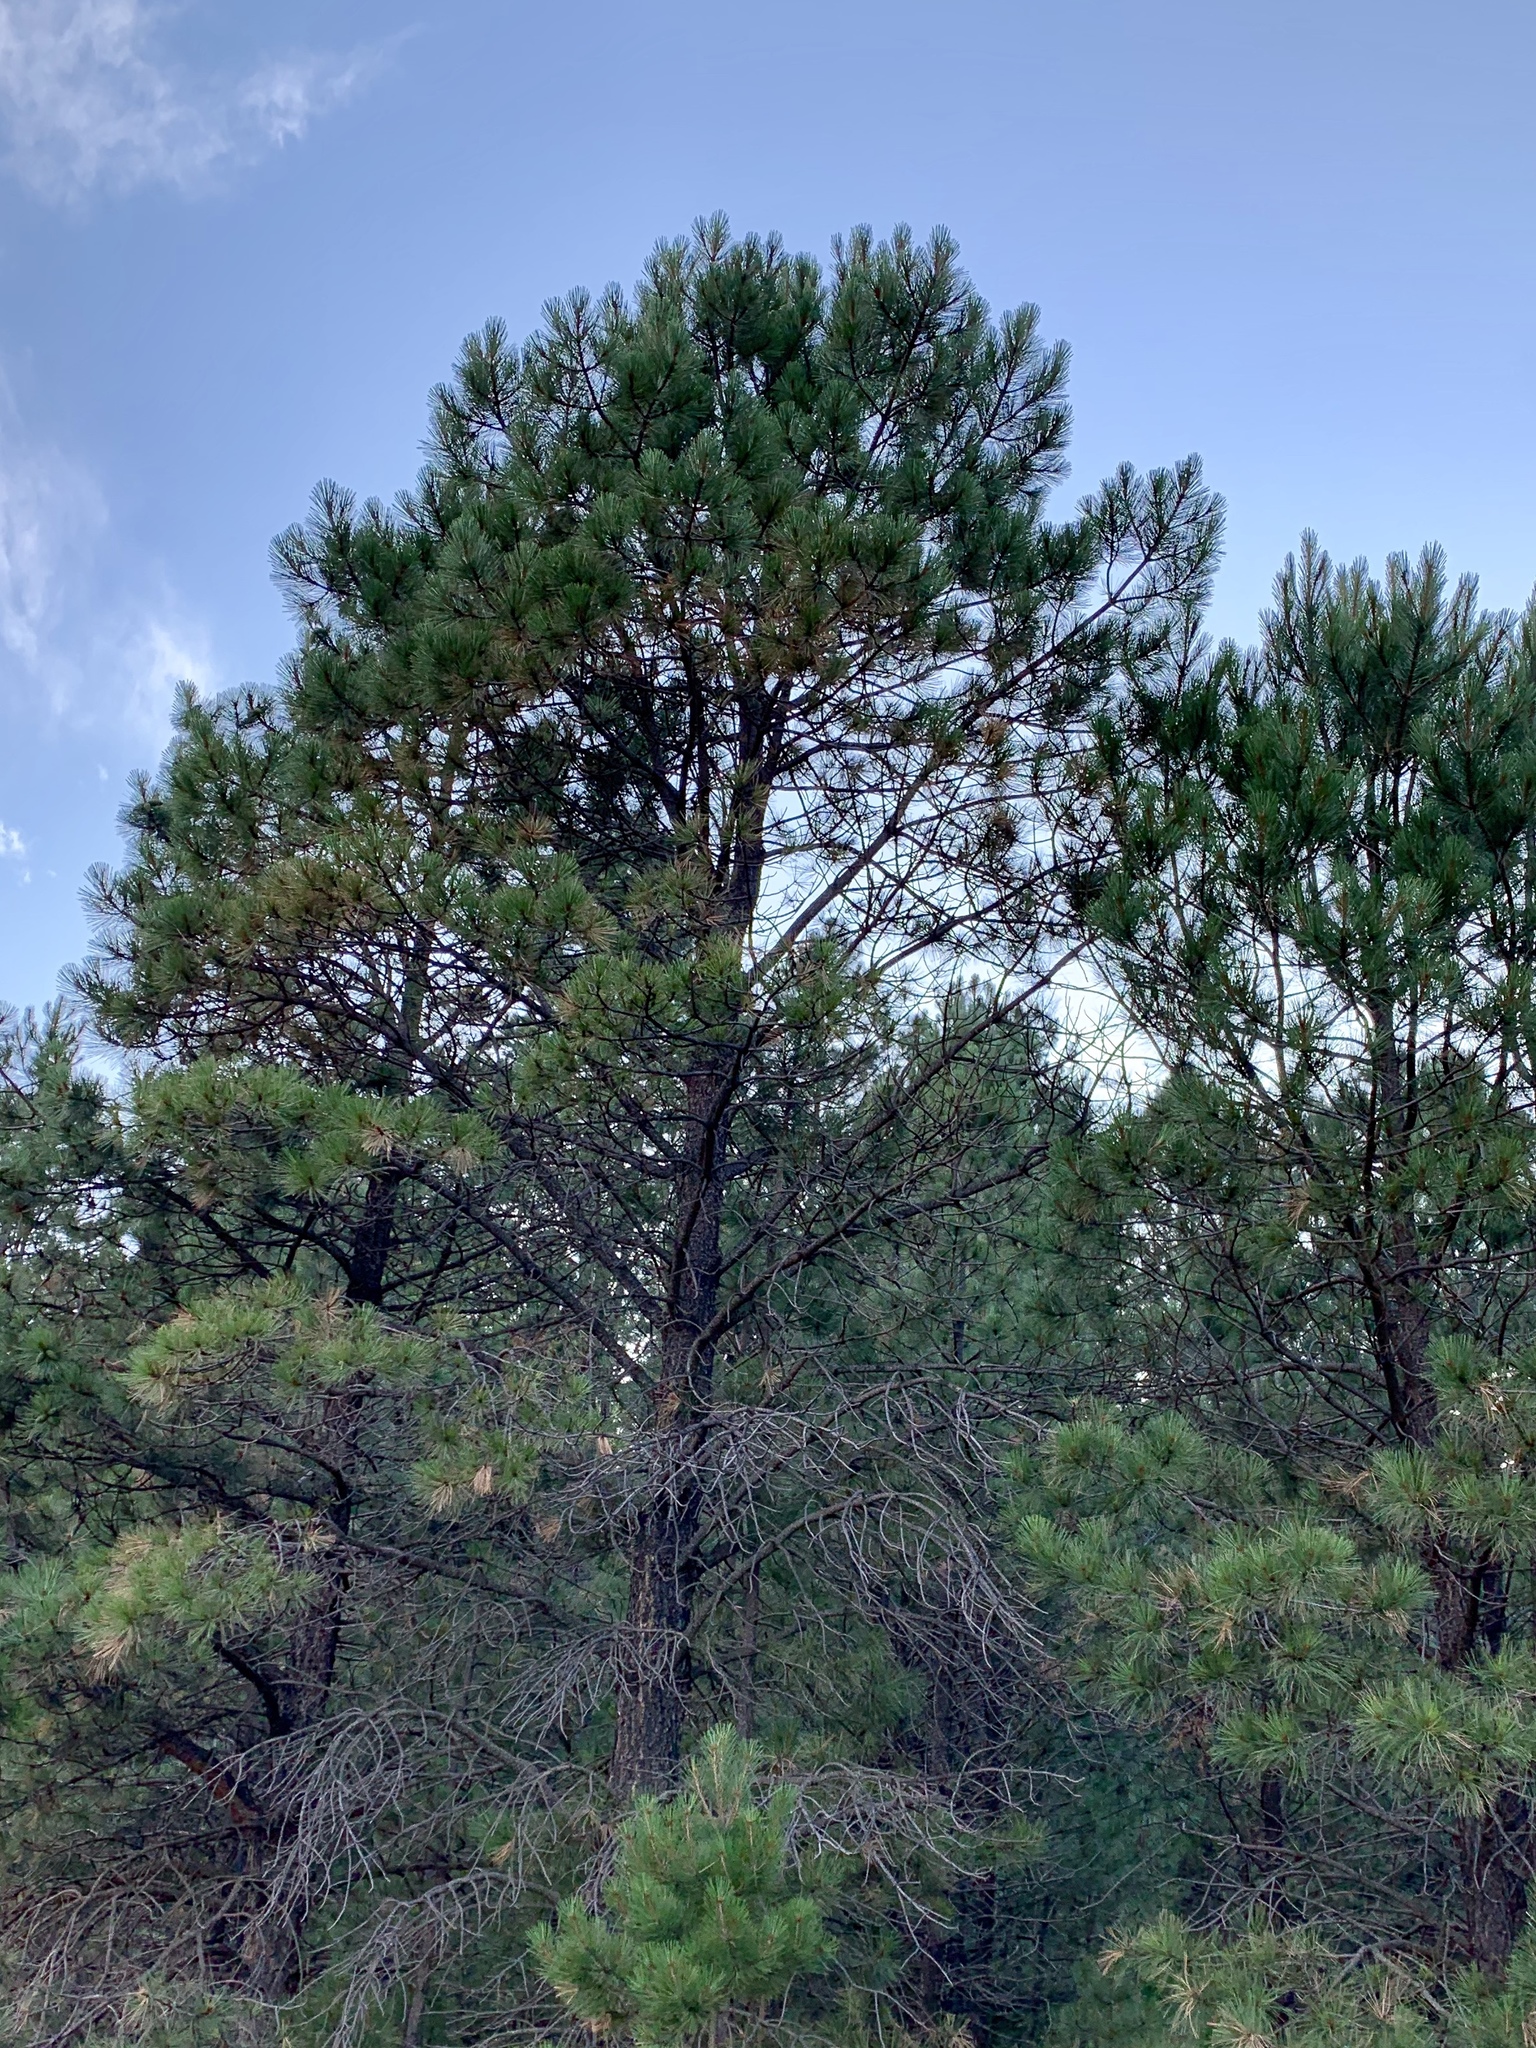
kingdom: Plantae
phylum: Tracheophyta
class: Pinopsida
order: Pinales
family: Pinaceae
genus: Pinus
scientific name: Pinus ponderosa
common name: Western yellow-pine
